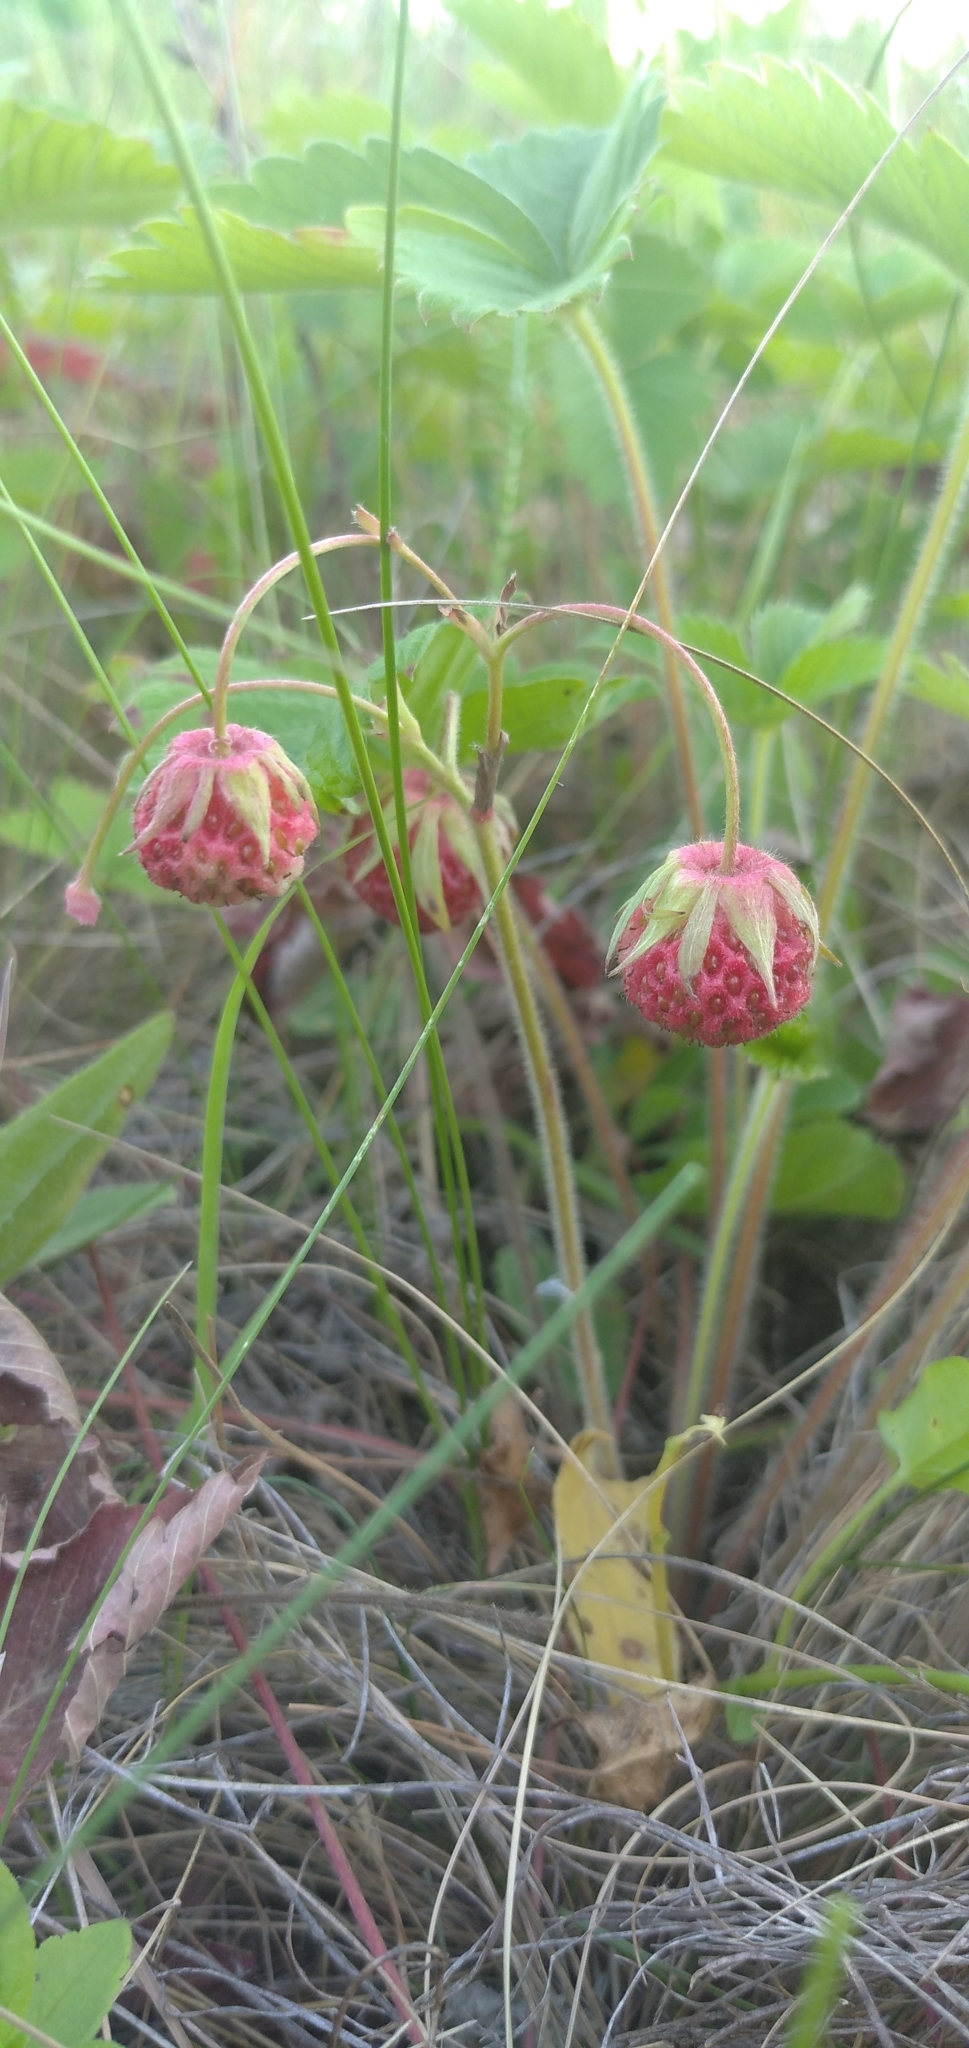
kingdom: Plantae
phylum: Tracheophyta
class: Magnoliopsida
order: Rosales
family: Rosaceae
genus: Fragaria
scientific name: Fragaria viridis
